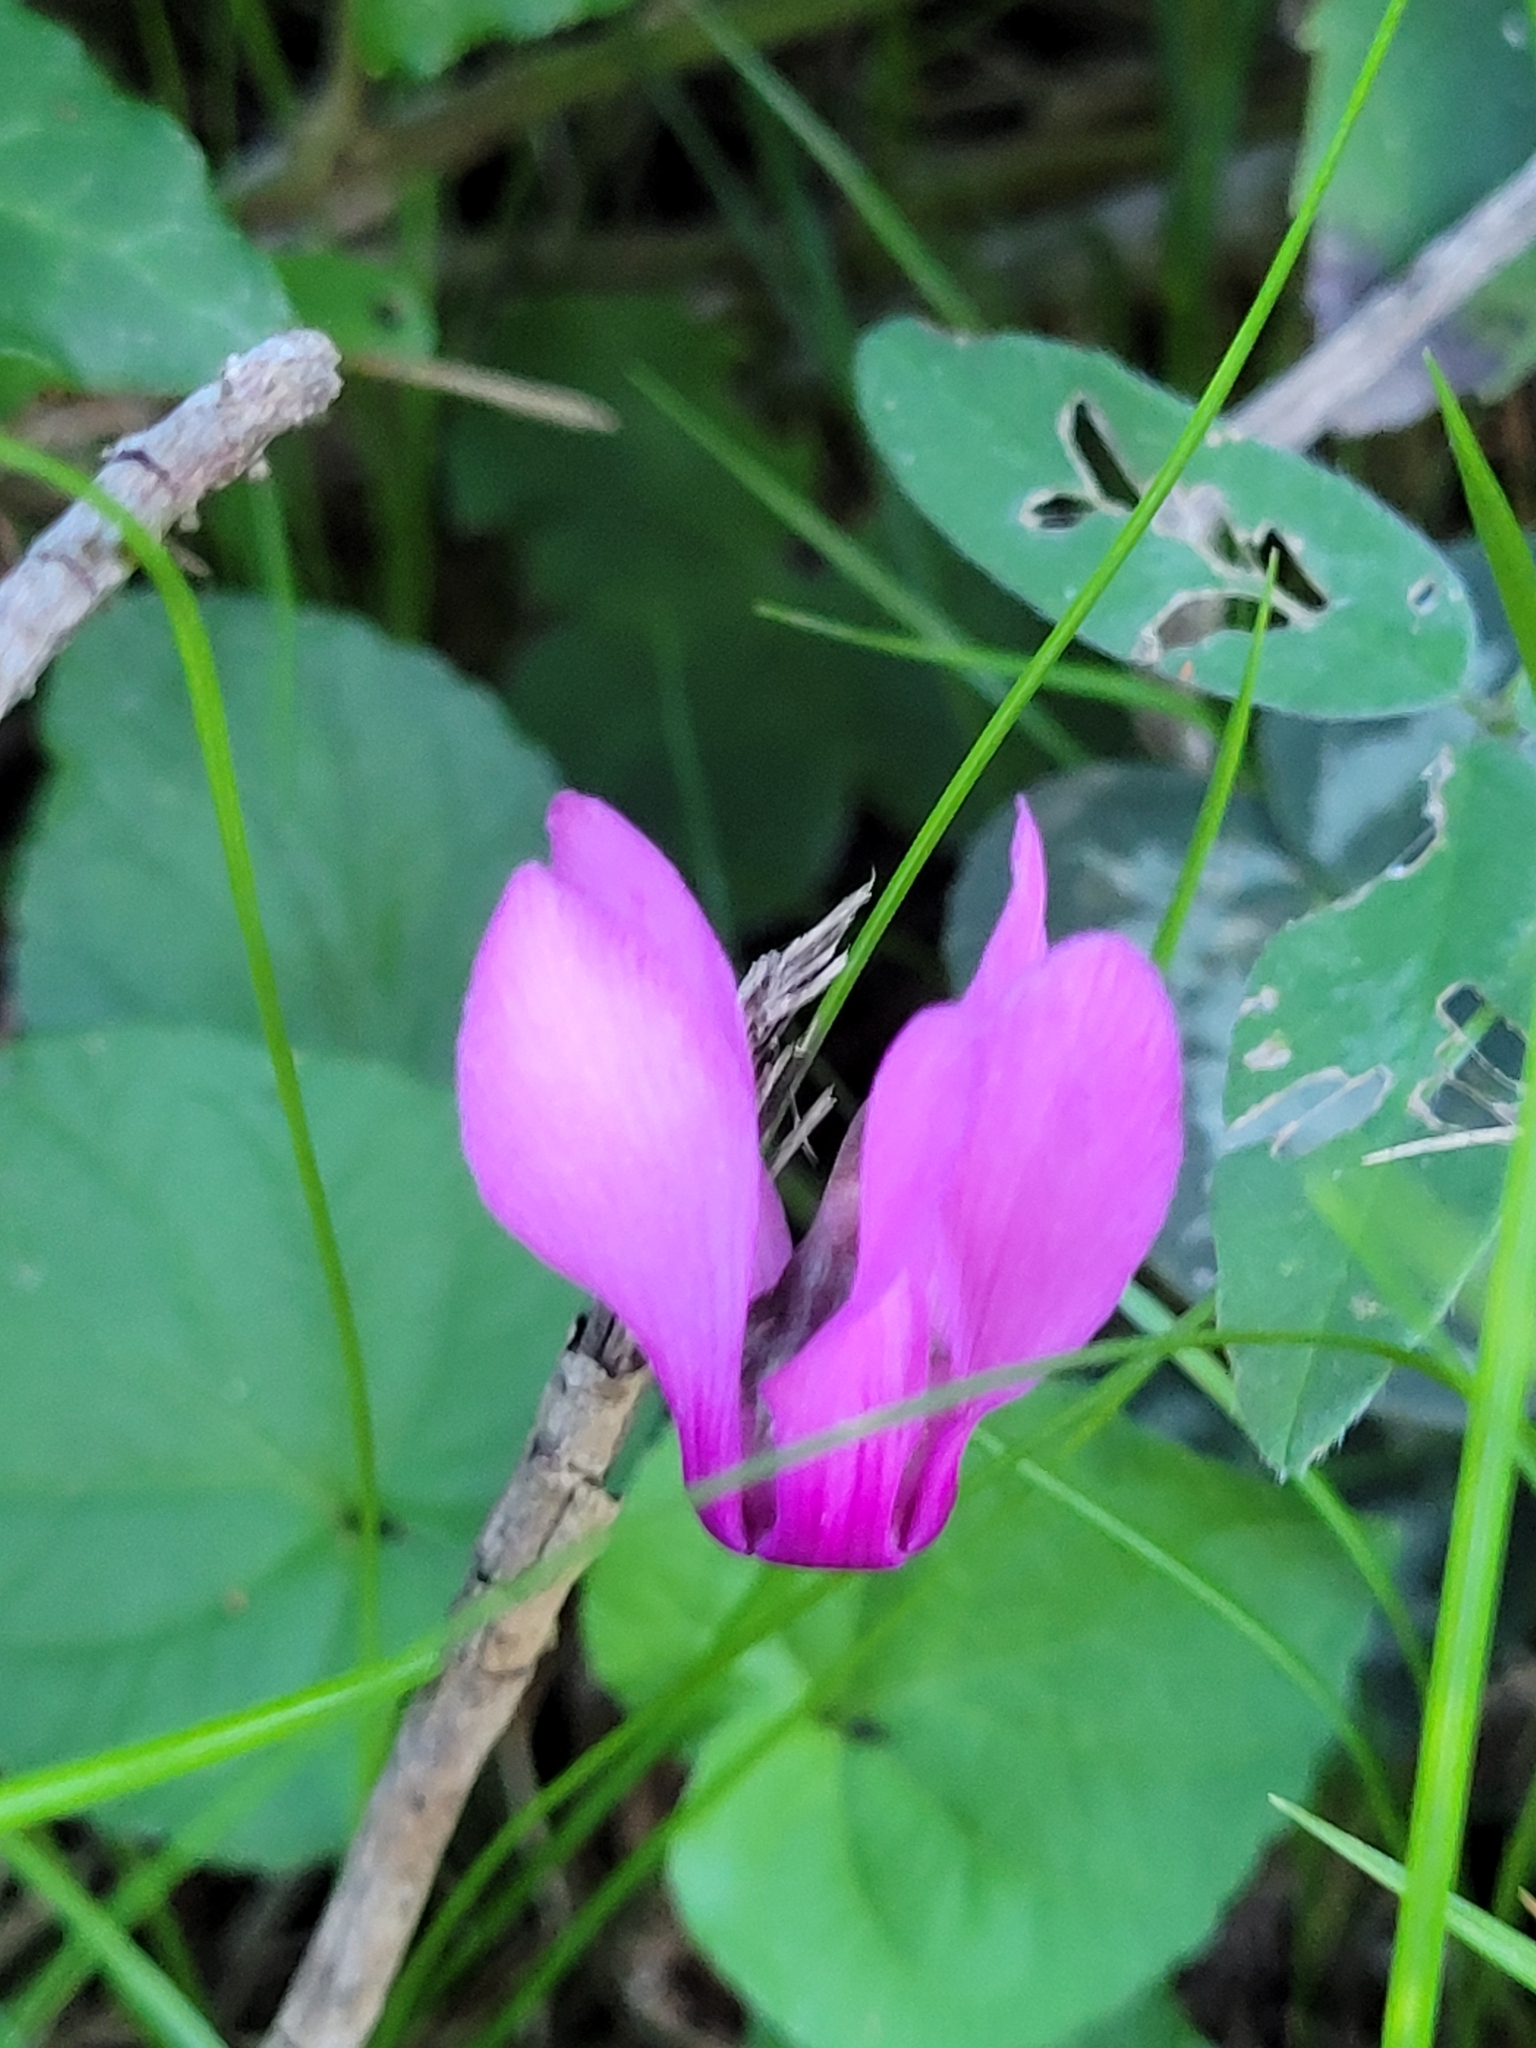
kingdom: Plantae
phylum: Tracheophyta
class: Magnoliopsida
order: Ericales
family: Primulaceae
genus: Cyclamen
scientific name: Cyclamen purpurascens
